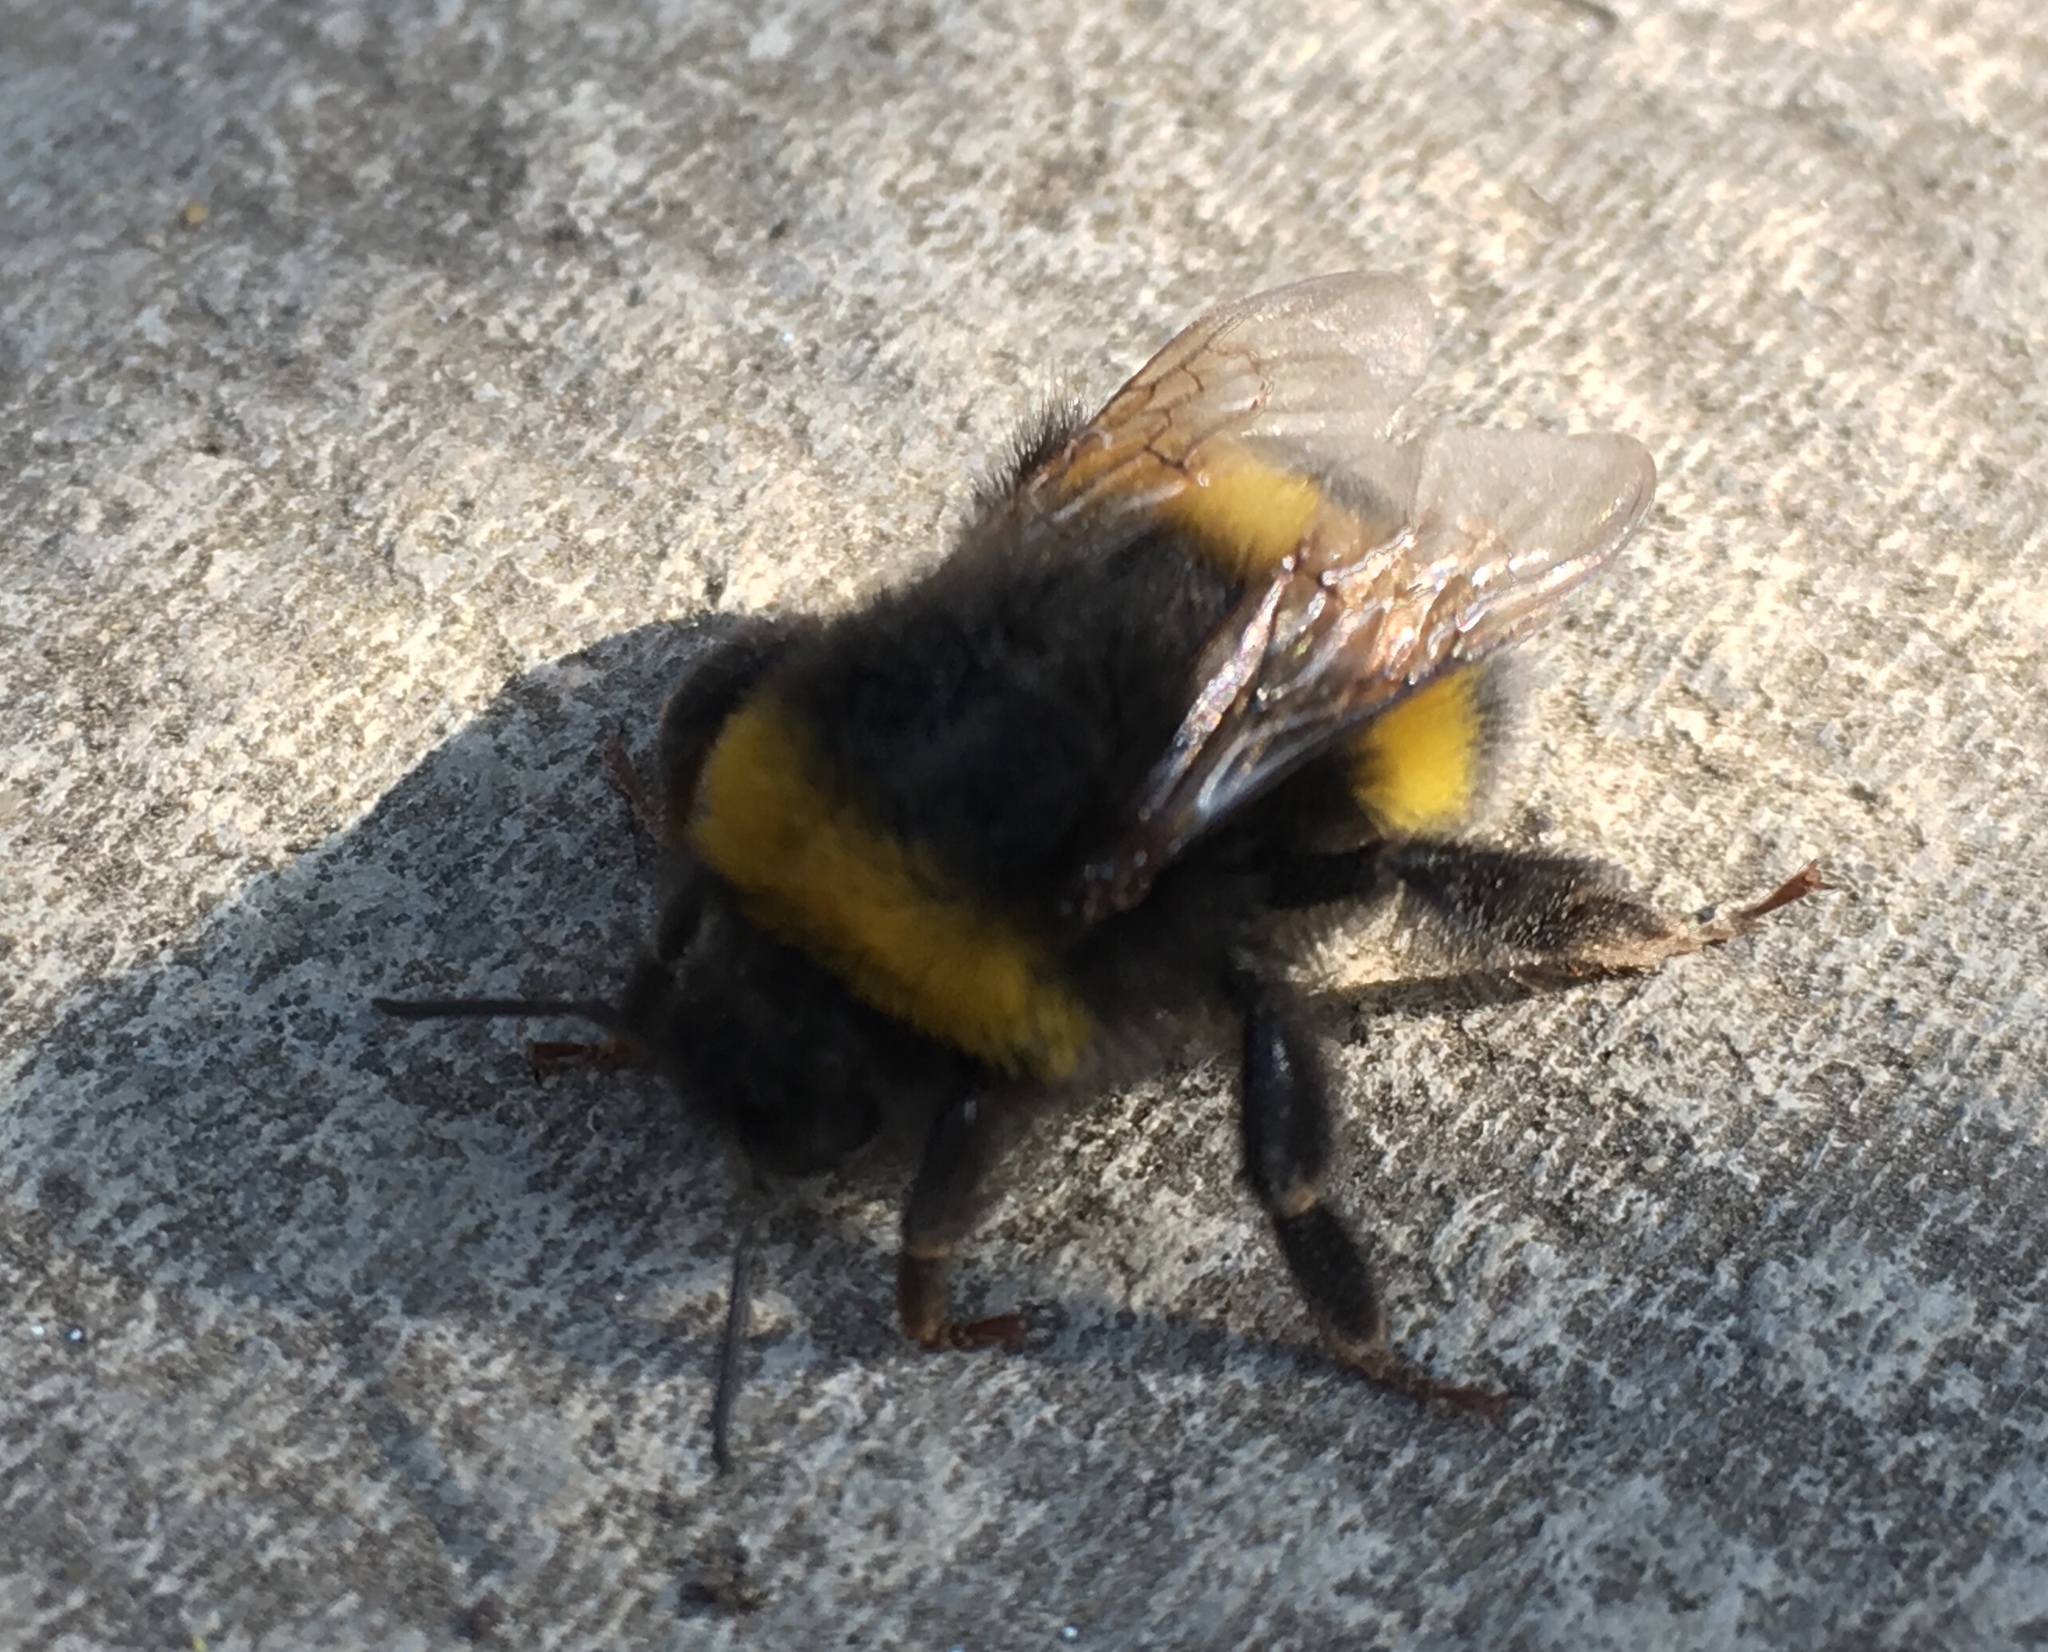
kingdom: Animalia
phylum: Arthropoda
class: Insecta
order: Hymenoptera
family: Apidae
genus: Bombus
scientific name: Bombus terrestris
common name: Buff-tailed bumblebee
